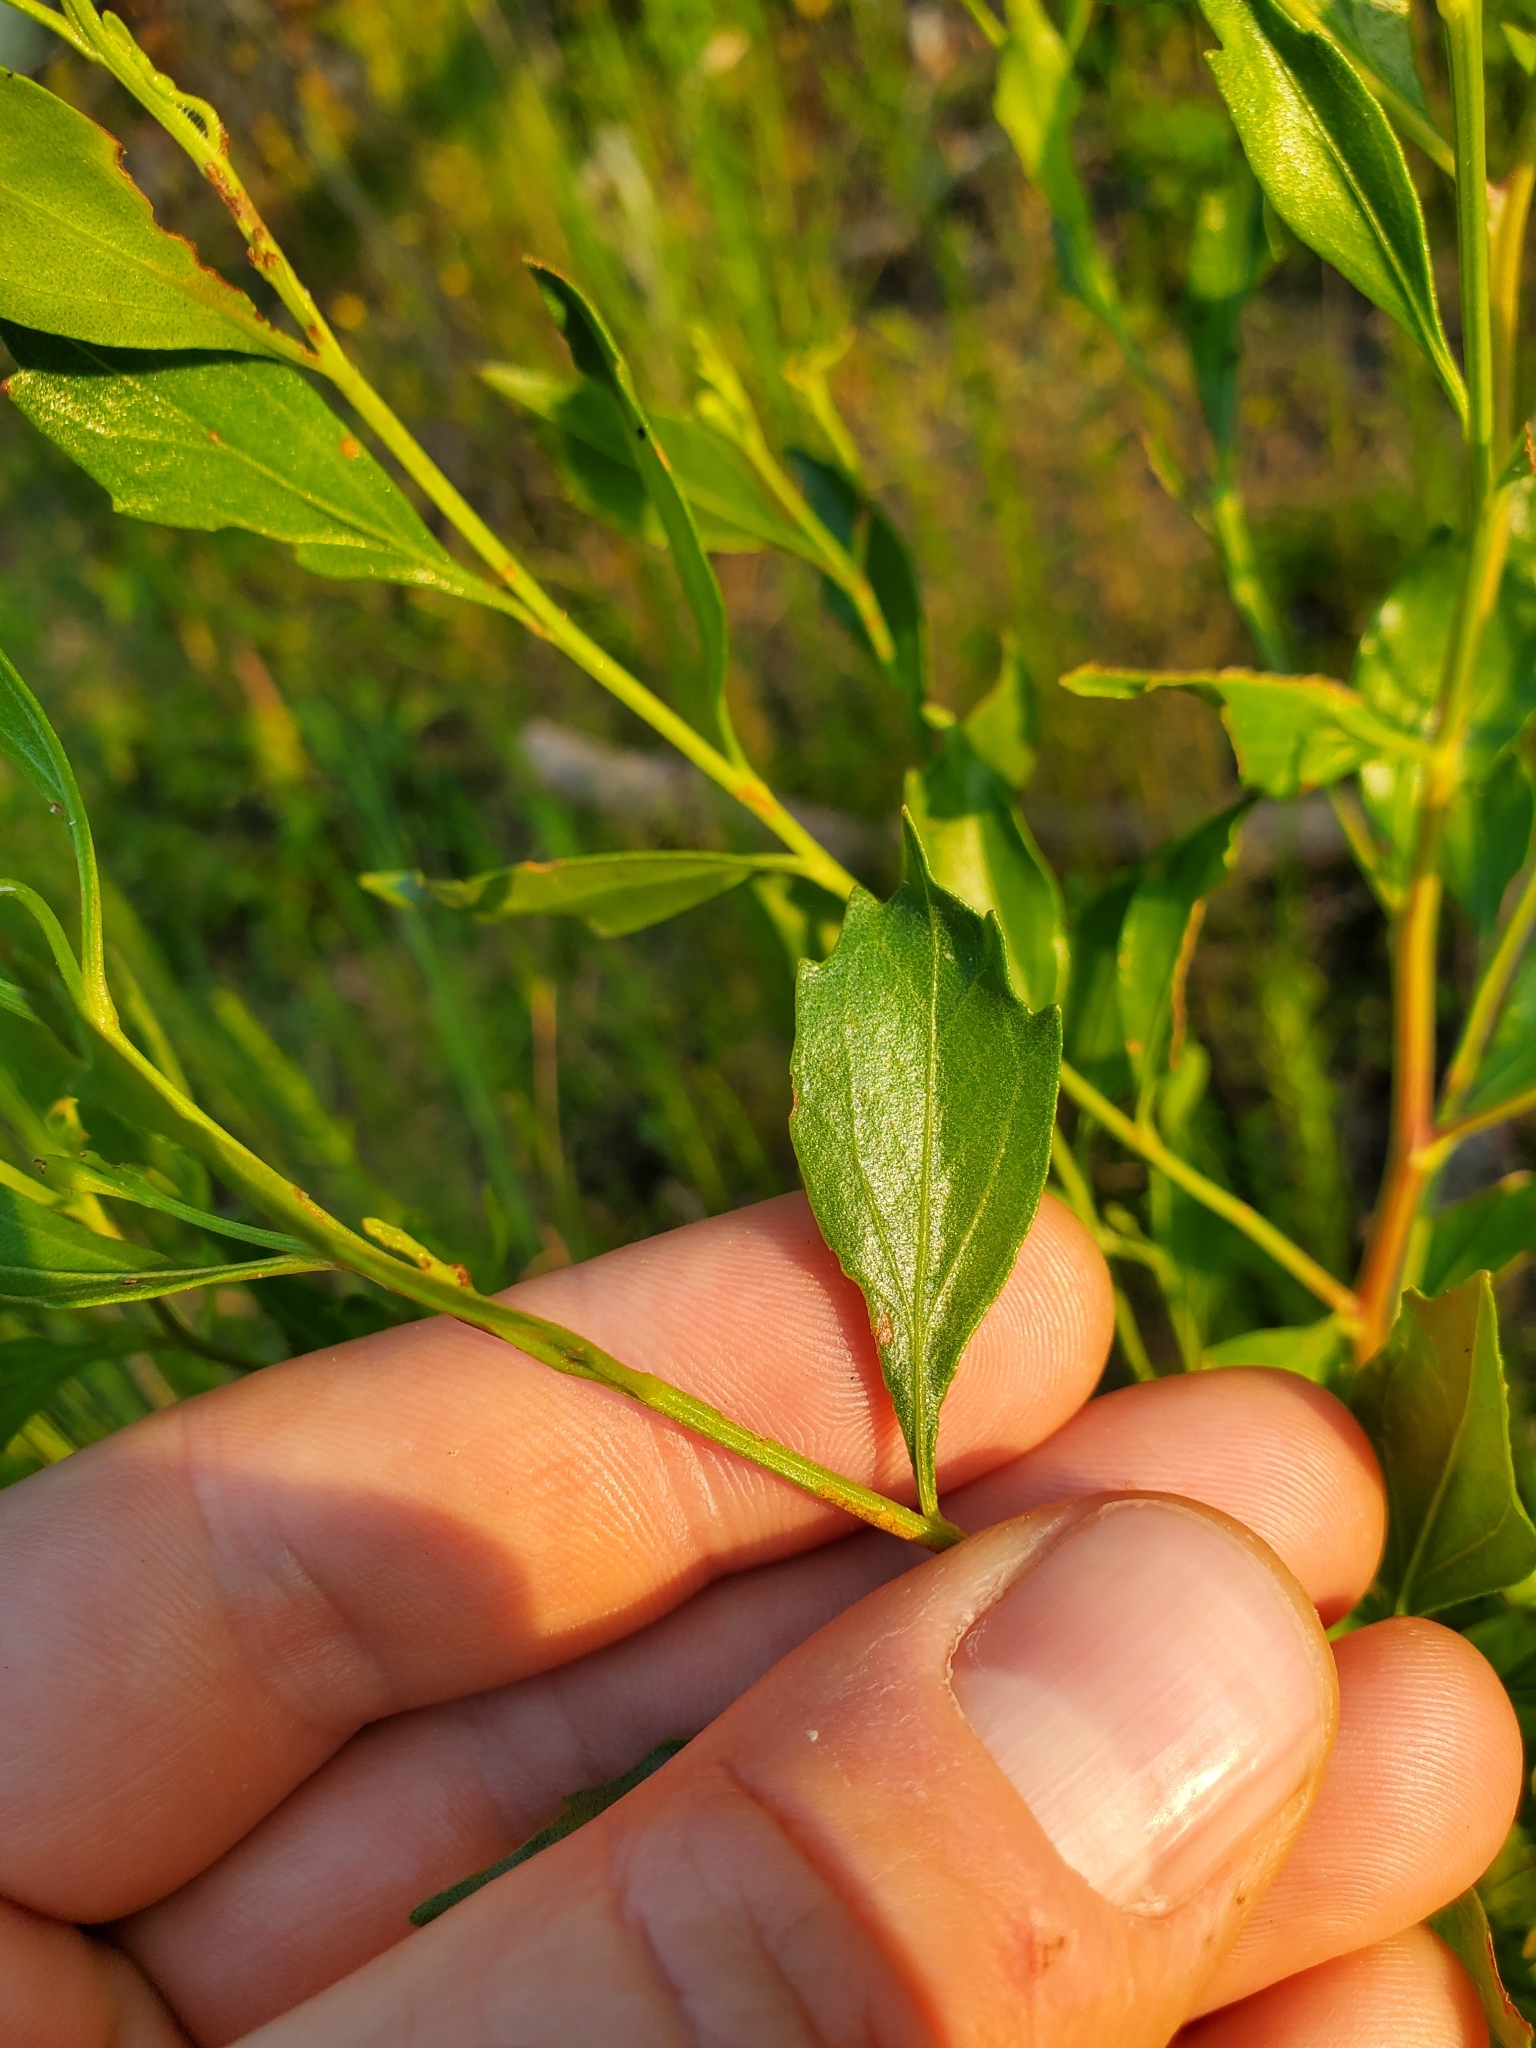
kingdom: Plantae
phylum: Tracheophyta
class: Magnoliopsida
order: Asterales
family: Asteraceae
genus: Baccharis
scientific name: Baccharis halimifolia
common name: Eastern baccharis
